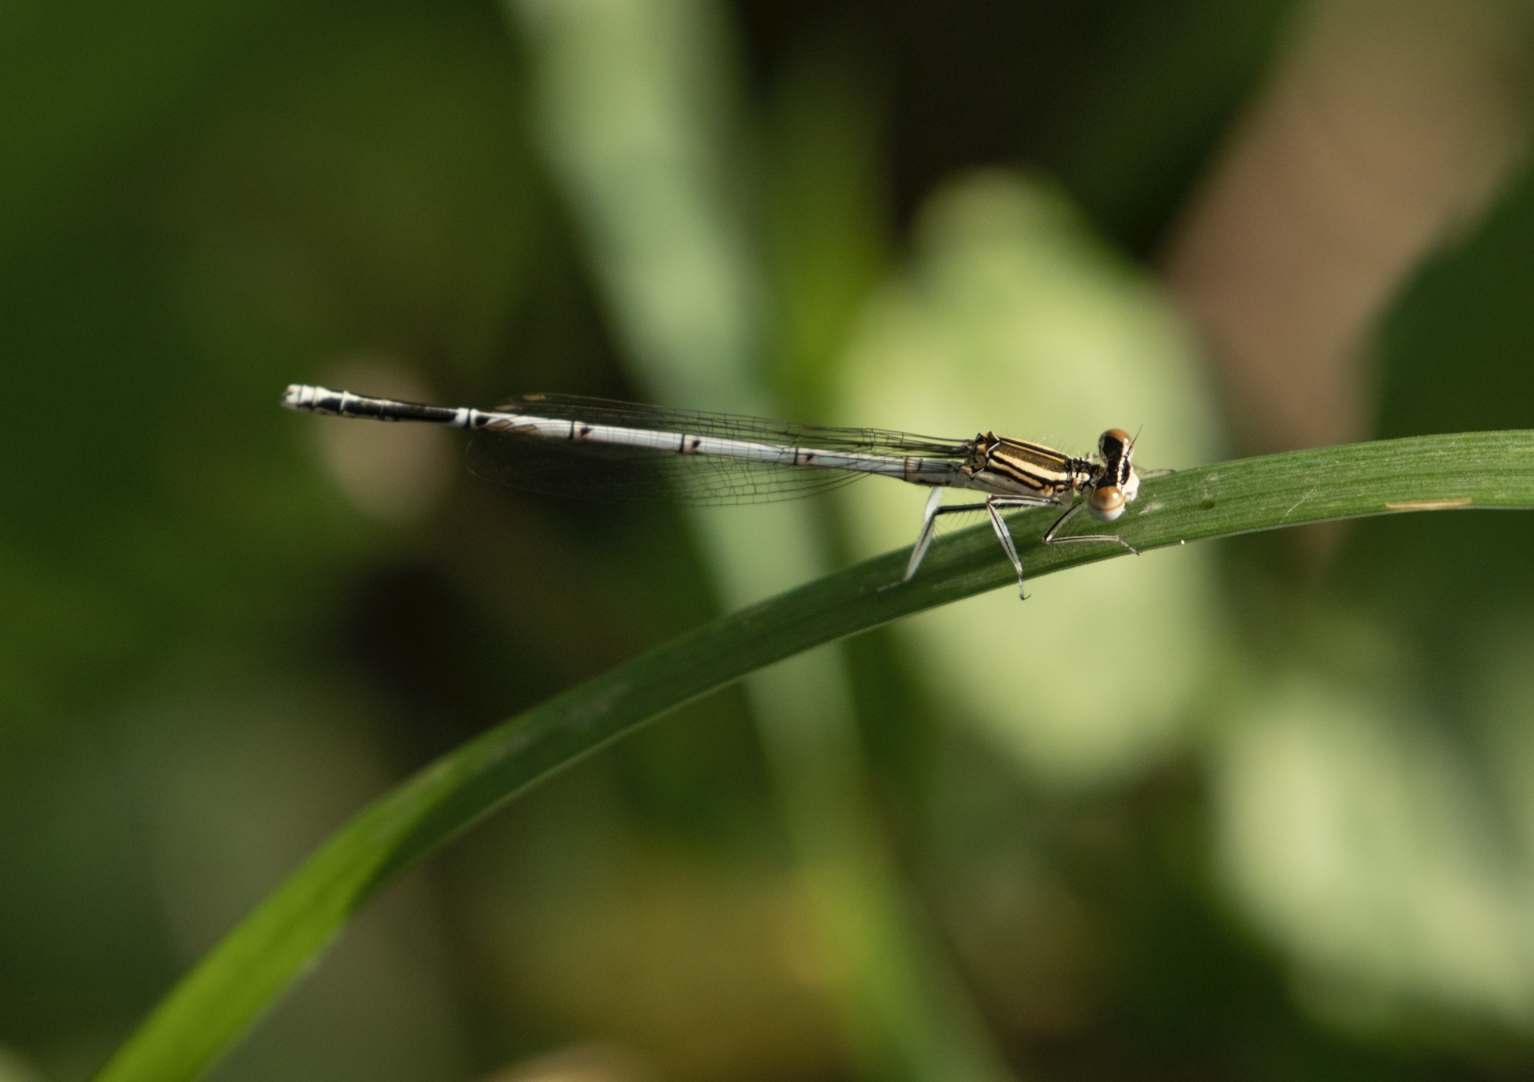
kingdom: Animalia
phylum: Arthropoda
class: Insecta
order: Odonata
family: Platycnemididae
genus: Platycnemis
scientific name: Platycnemis pennipes
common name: White-legged damselfly
